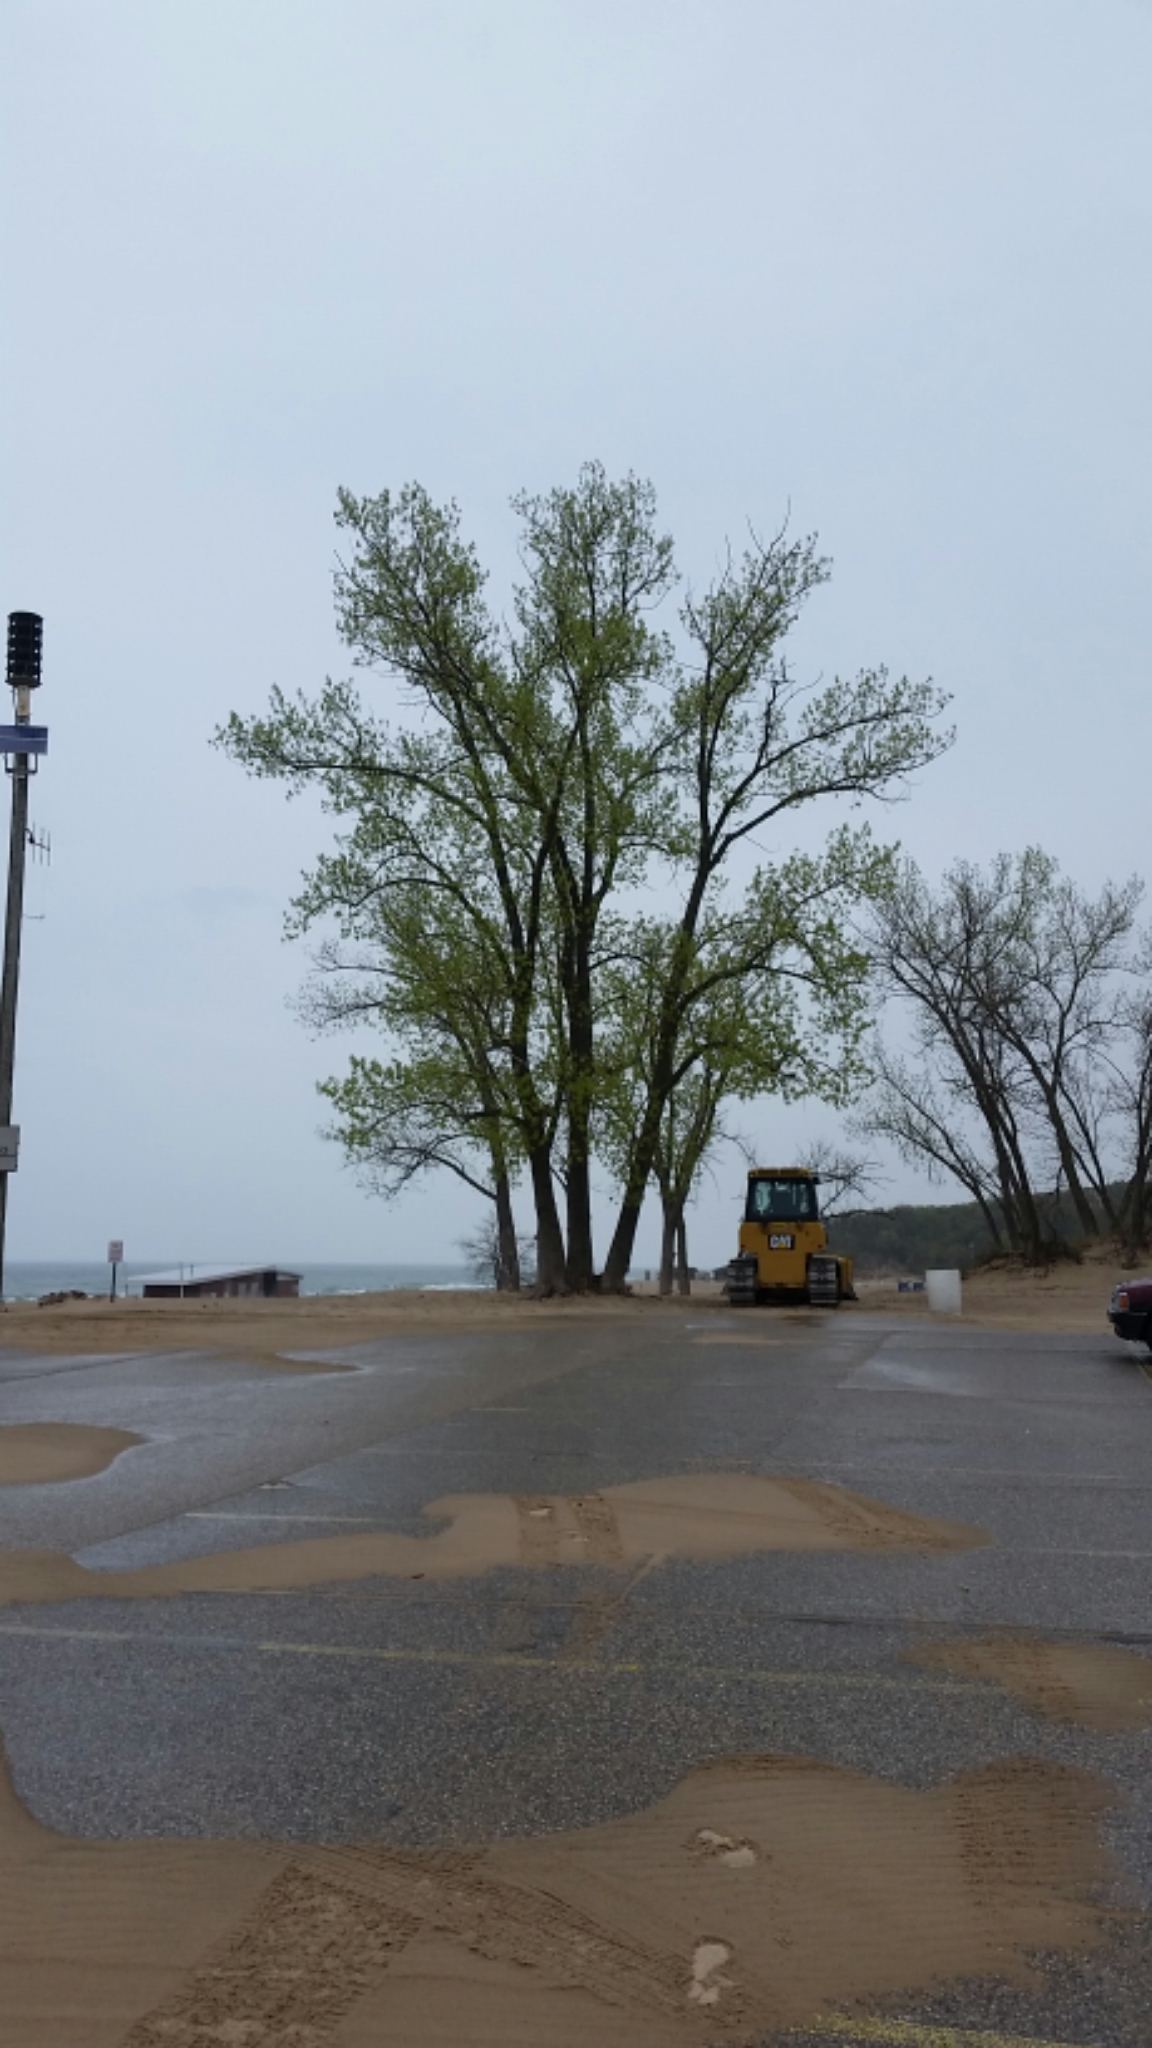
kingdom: Plantae
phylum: Tracheophyta
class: Magnoliopsida
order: Malpighiales
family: Salicaceae
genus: Populus
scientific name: Populus deltoides
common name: Eastern cottonwood
